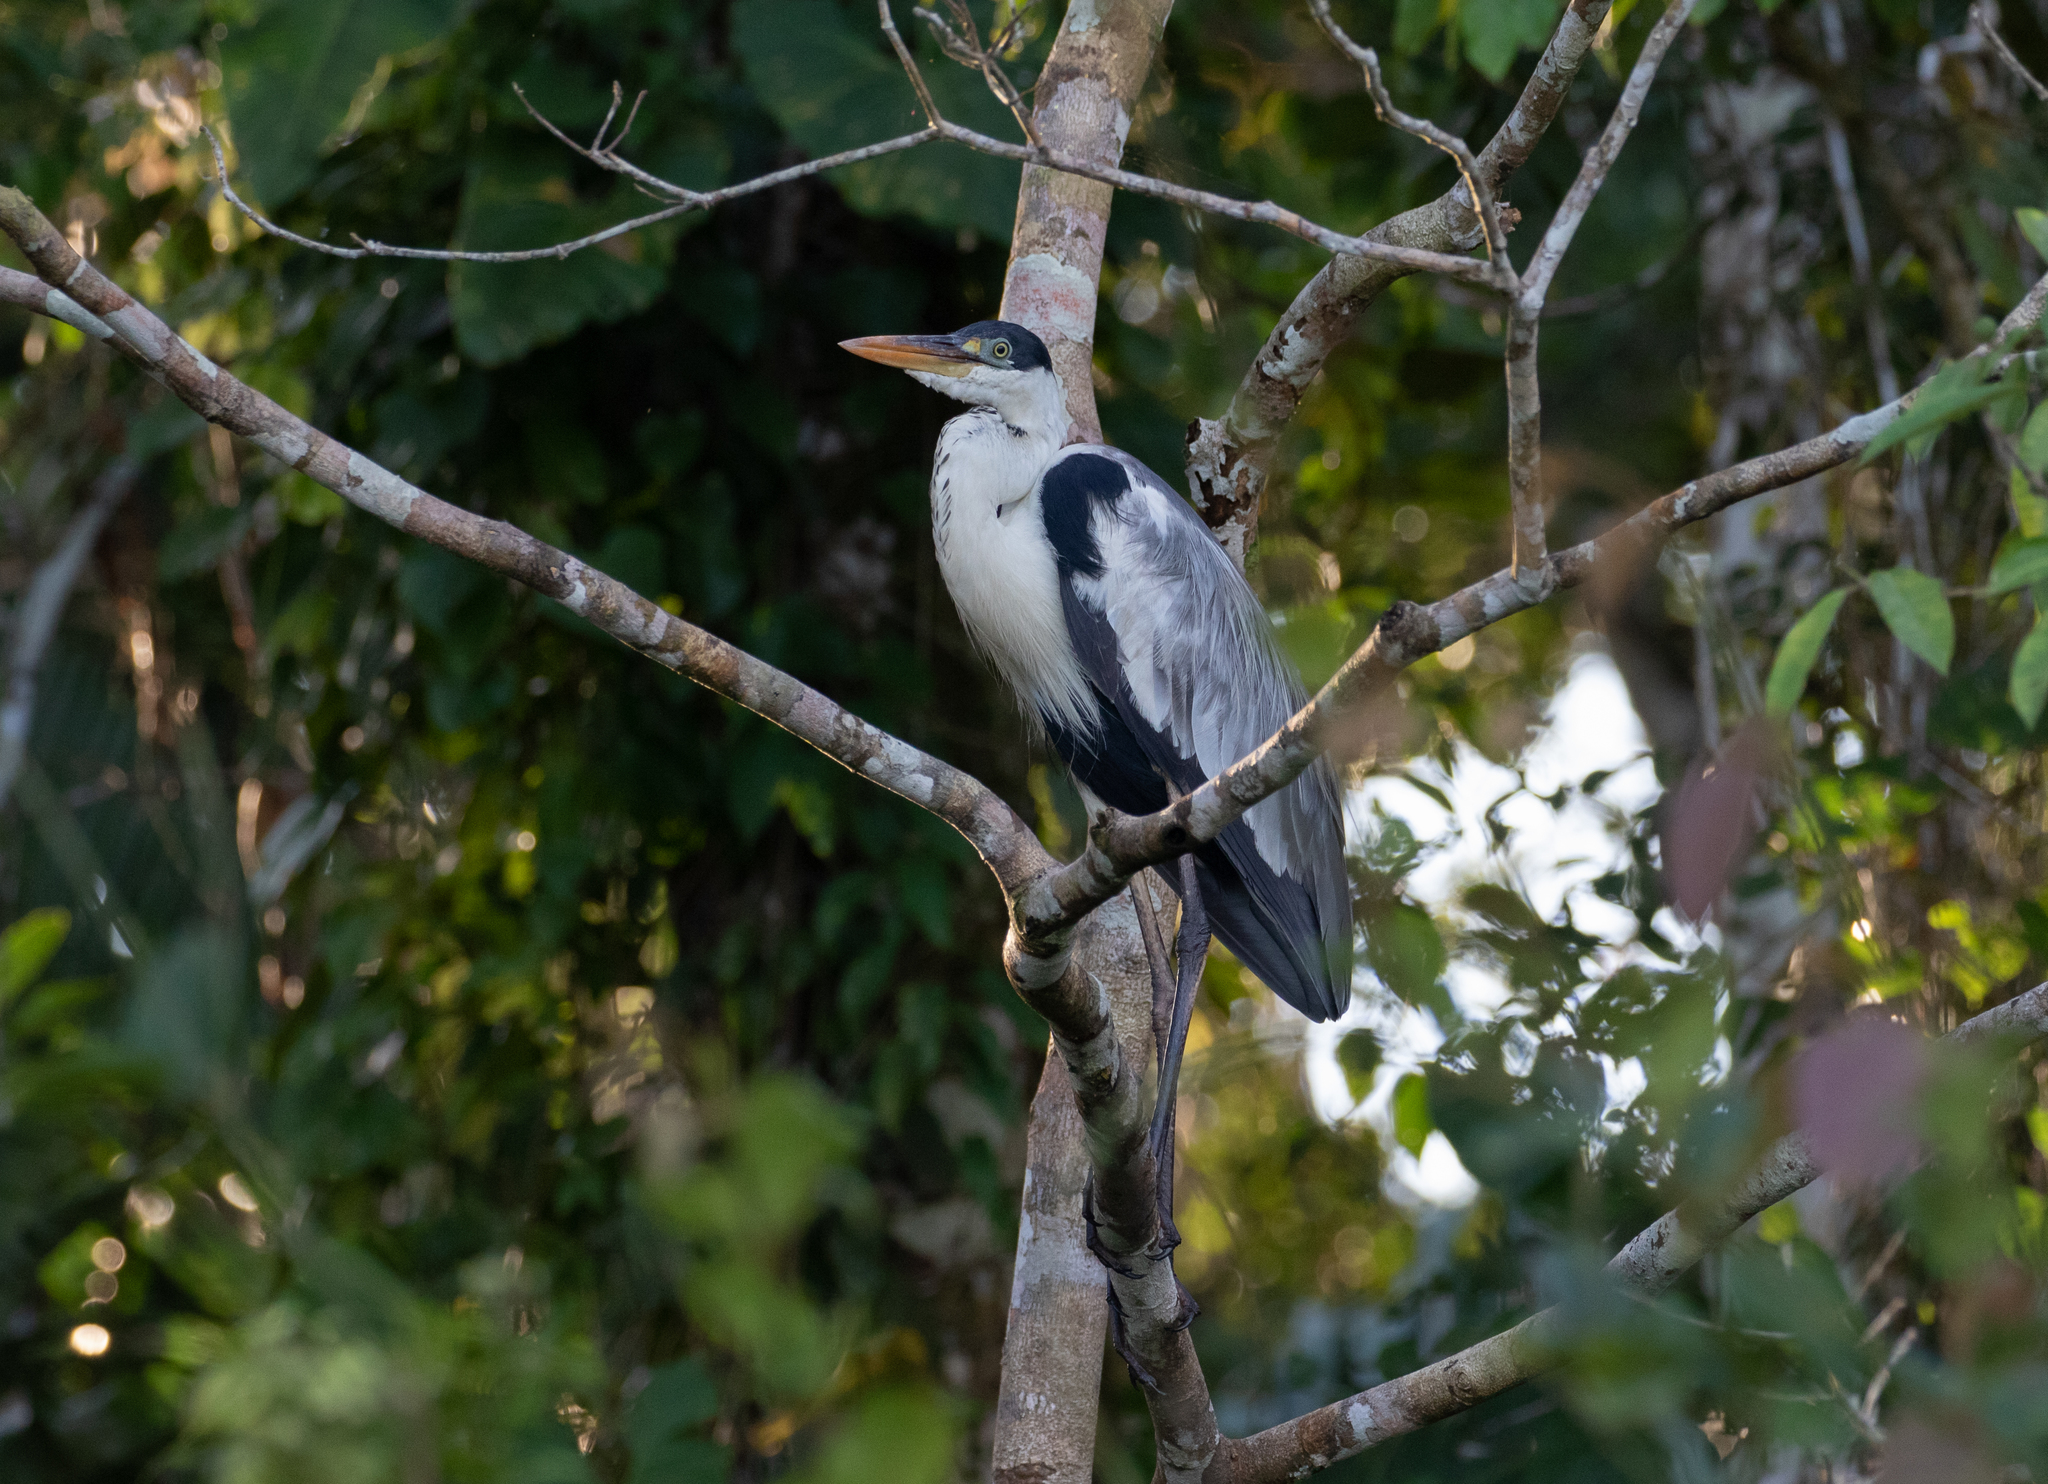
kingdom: Animalia
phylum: Chordata
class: Aves
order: Pelecaniformes
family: Ardeidae
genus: Ardea
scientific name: Ardea cocoi
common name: Cocoi heron
